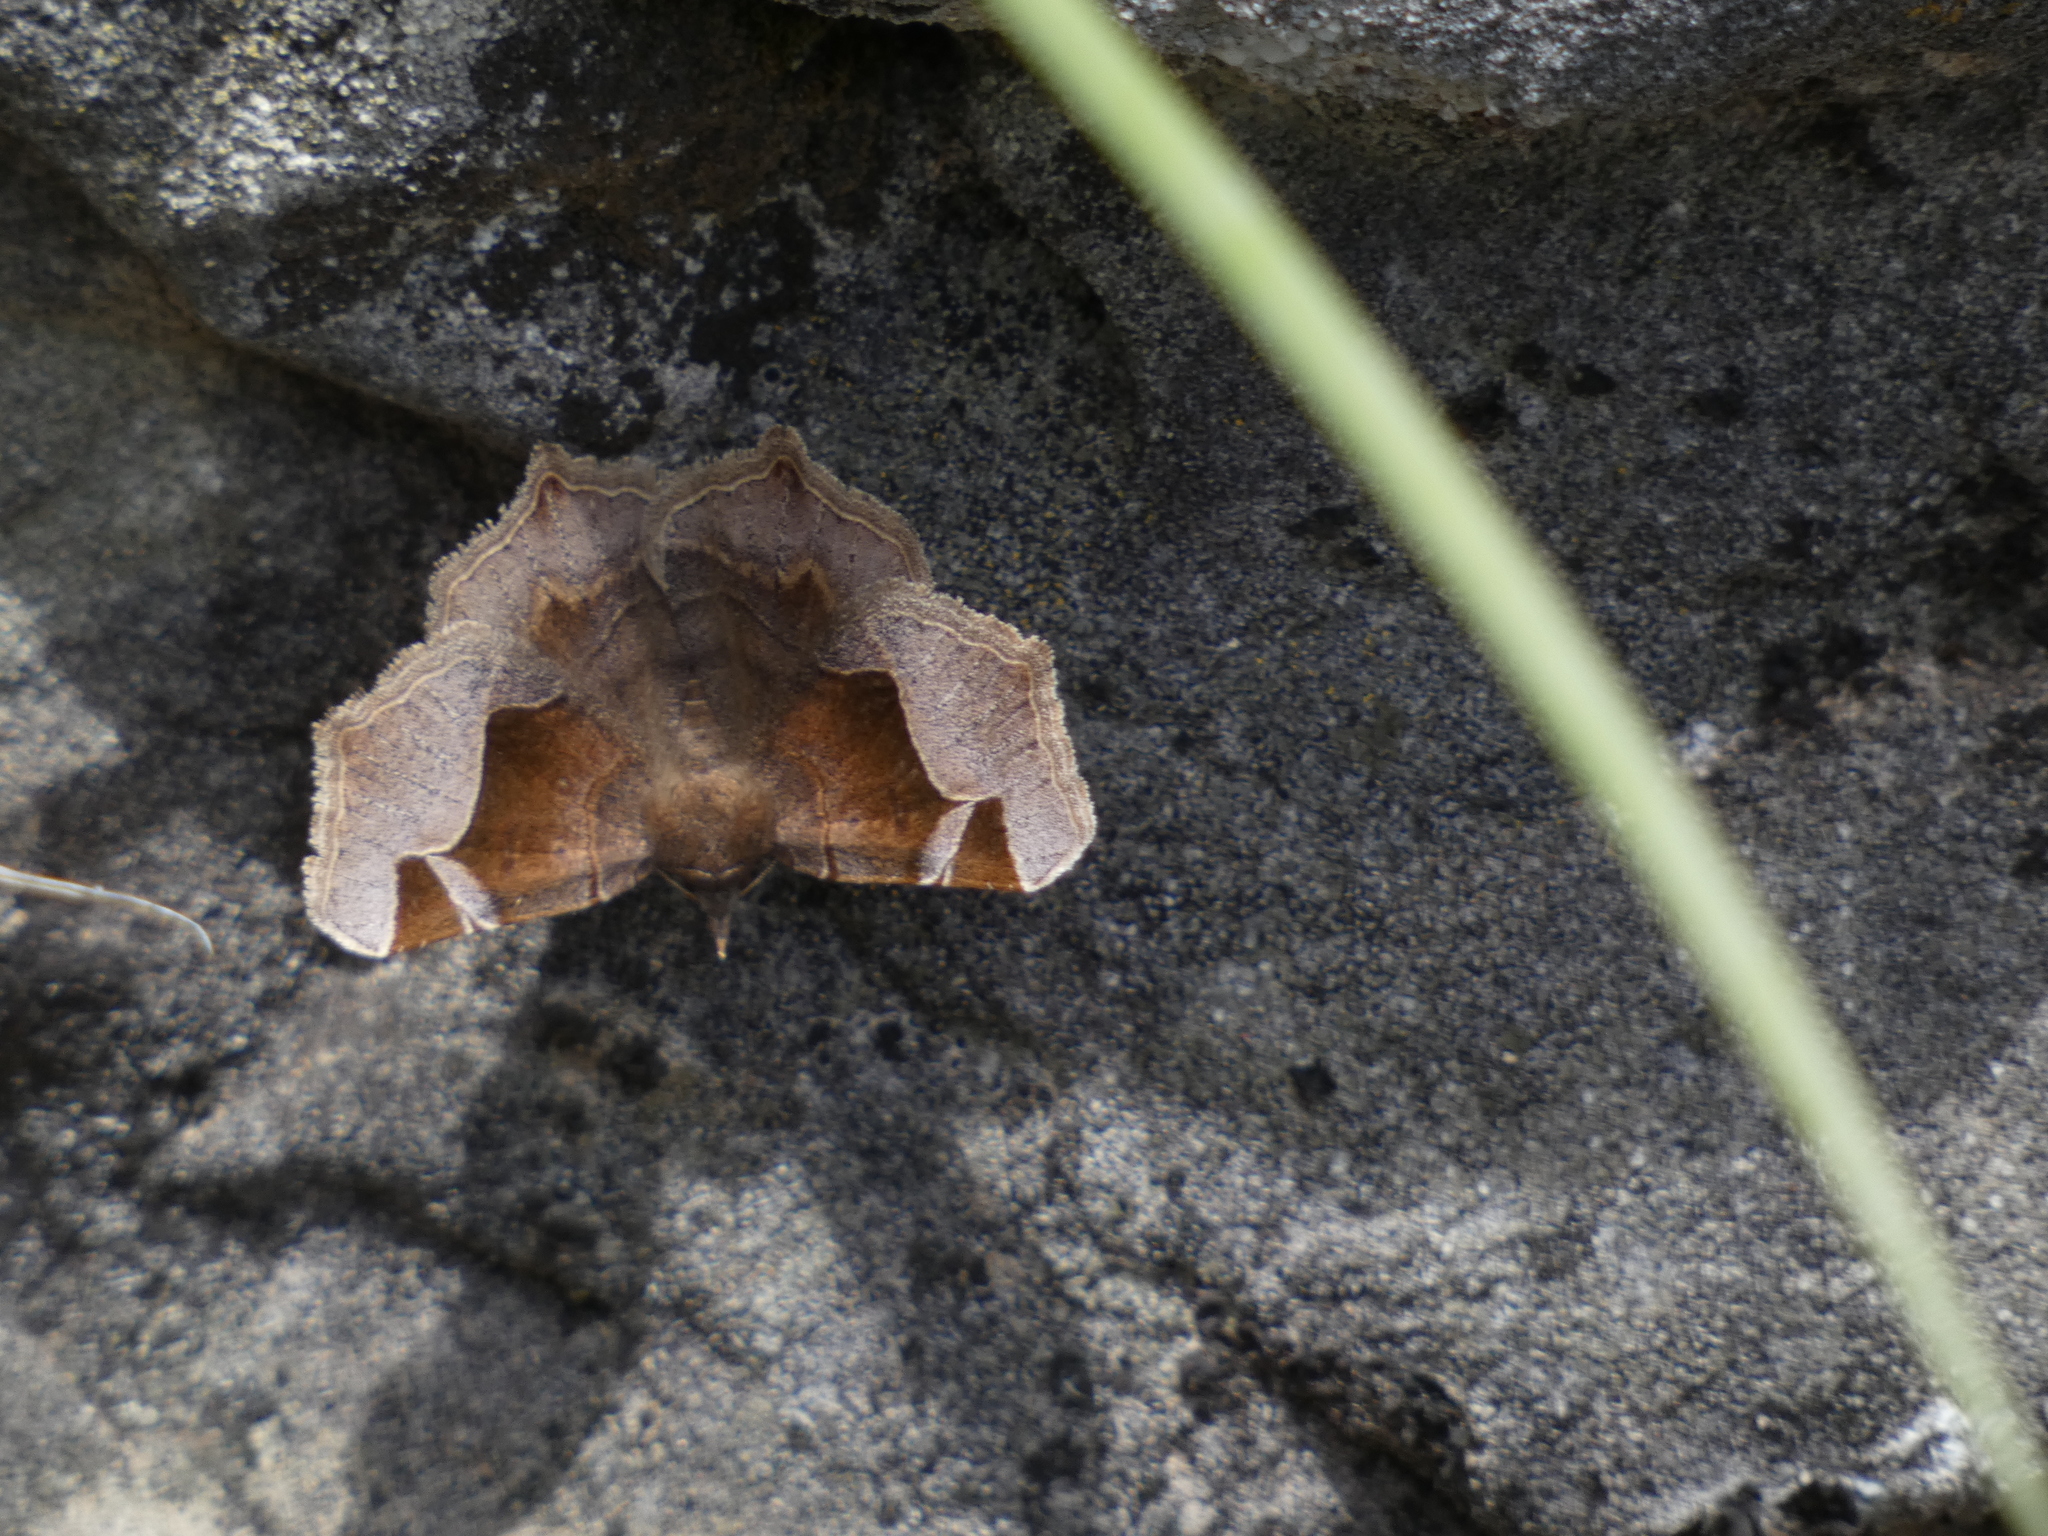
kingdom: Animalia
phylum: Arthropoda
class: Insecta
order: Lepidoptera
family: Erebidae
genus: Zethes
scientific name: Zethes insularis
